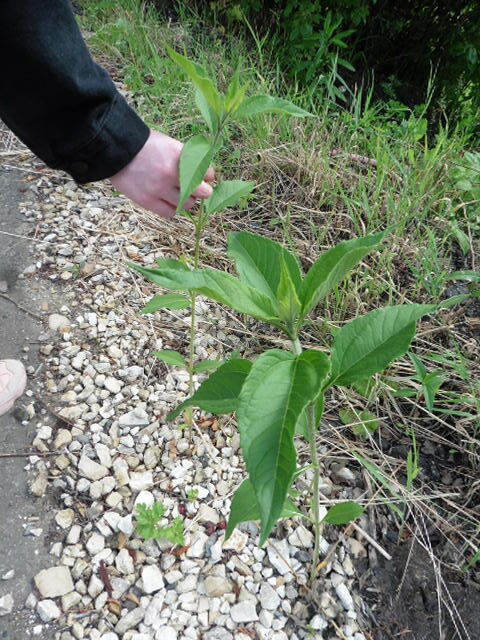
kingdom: Plantae
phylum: Tracheophyta
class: Magnoliopsida
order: Asterales
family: Asteraceae
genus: Helianthus
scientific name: Helianthus tuberosus
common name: Jerusalem artichoke
